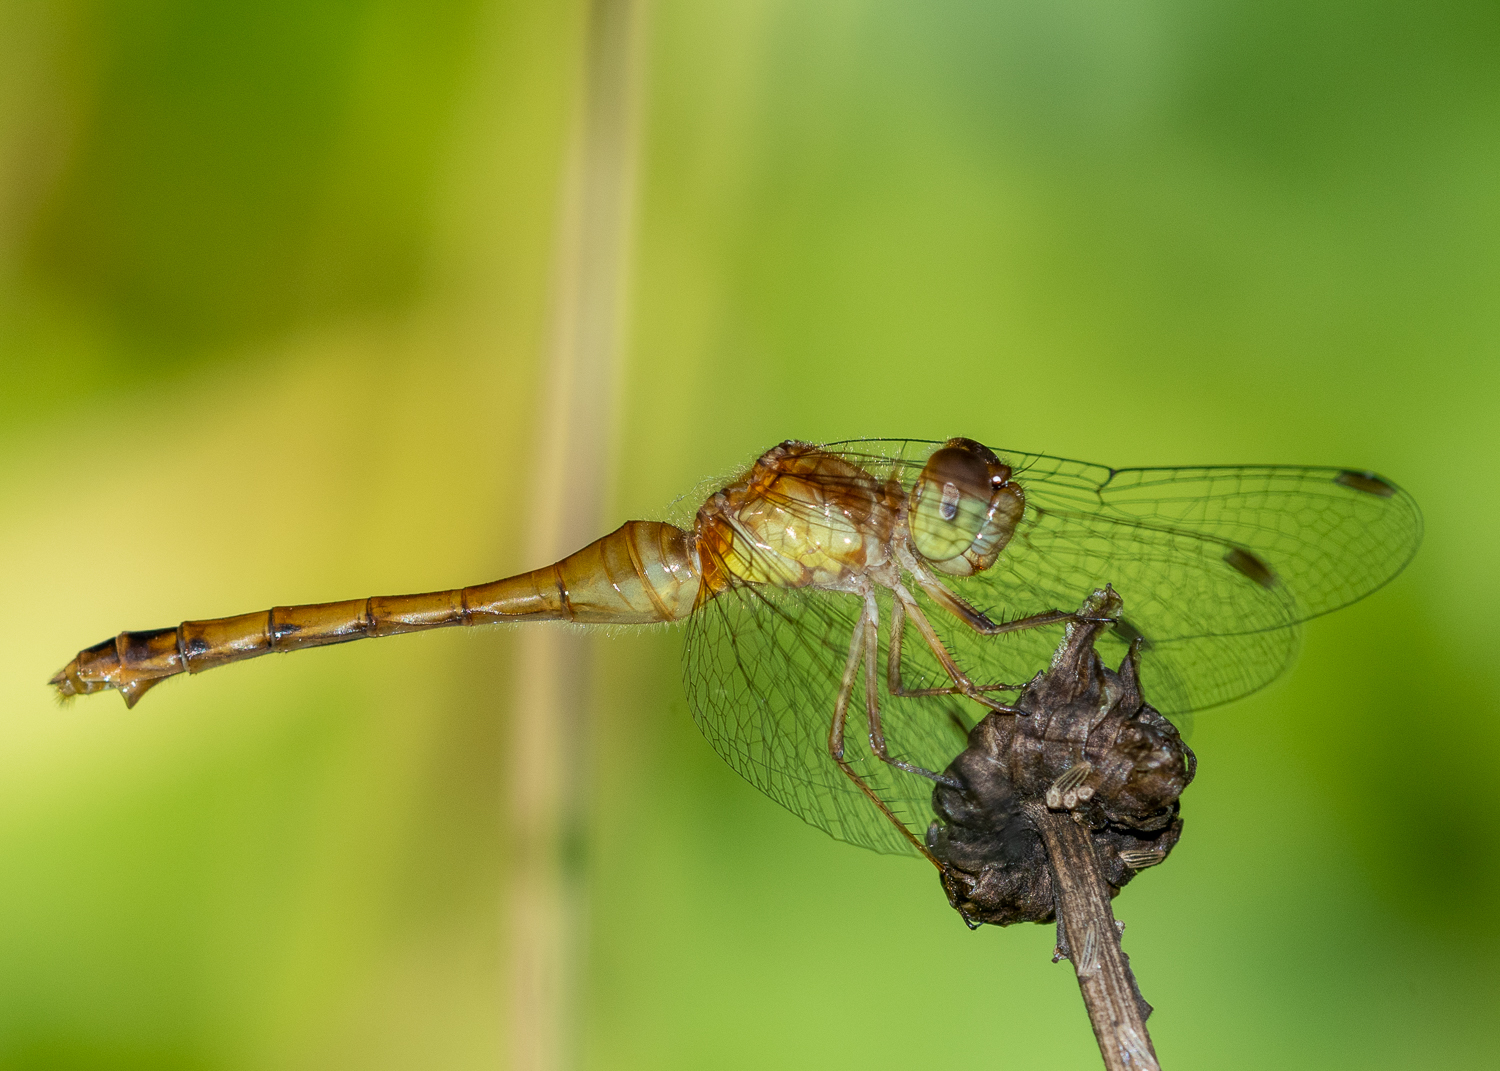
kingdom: Animalia
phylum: Arthropoda
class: Insecta
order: Odonata
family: Libellulidae
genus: Sympetrum
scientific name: Sympetrum vicinum
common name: Autumn meadowhawk
